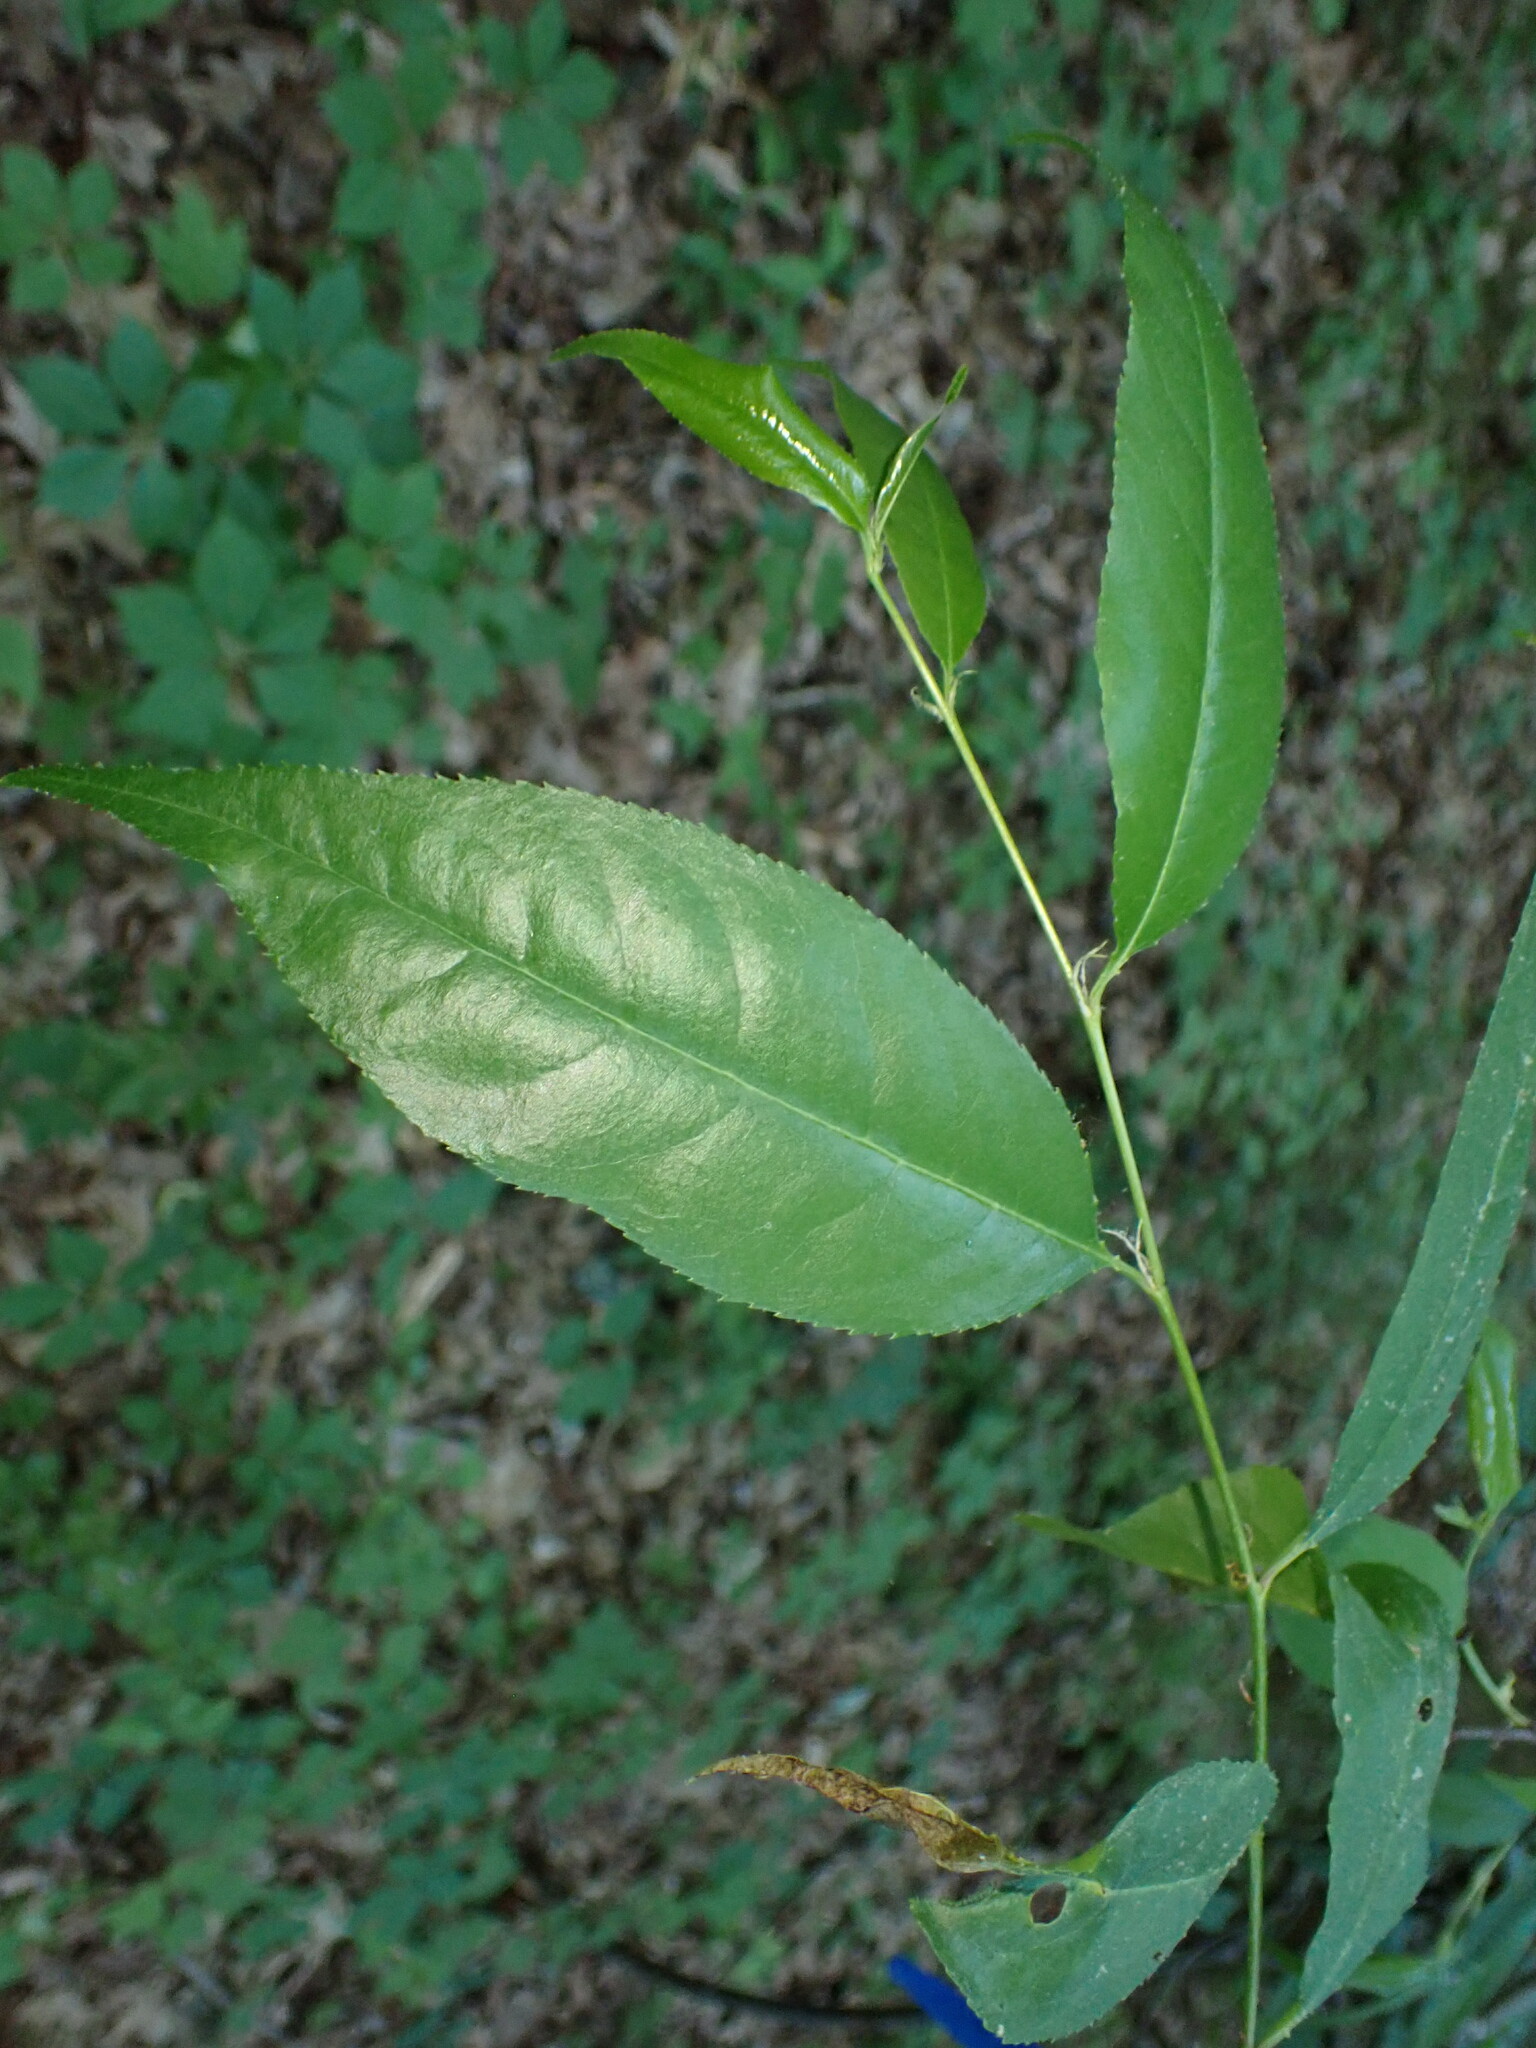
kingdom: Plantae
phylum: Tracheophyta
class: Magnoliopsida
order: Rosales
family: Rosaceae
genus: Prunus
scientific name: Prunus serotina
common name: Black cherry
